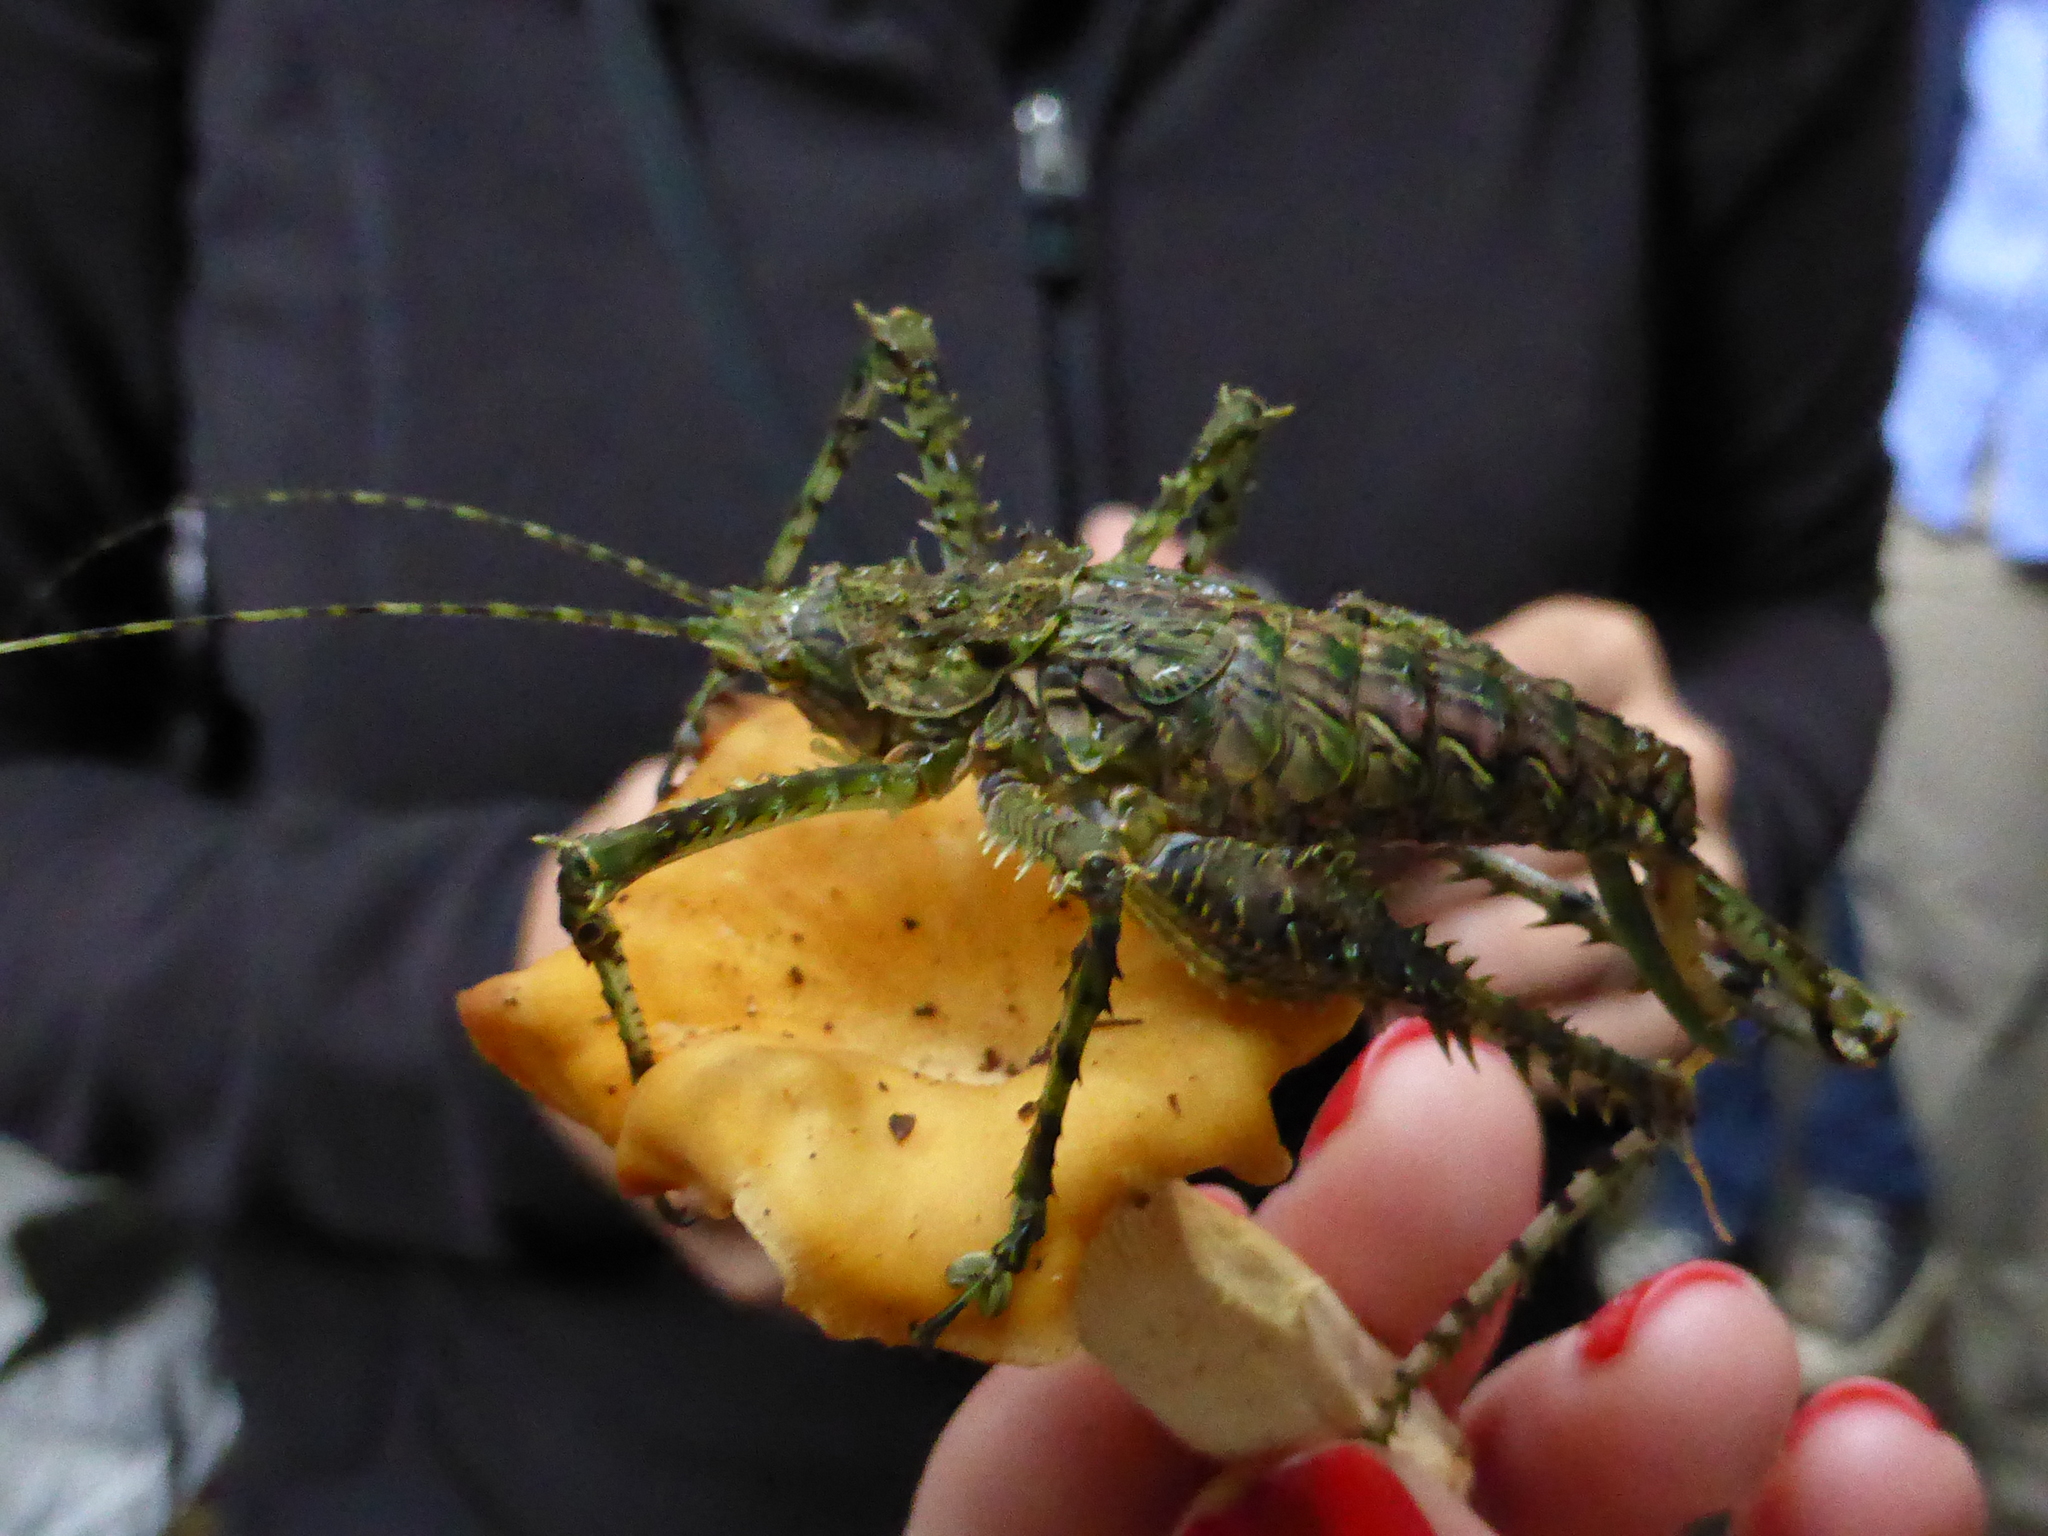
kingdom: Animalia
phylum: Arthropoda
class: Insecta
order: Orthoptera
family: Tettigoniidae
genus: Phricta
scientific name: Phricta spinosa
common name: Giant spiny forest katydid
